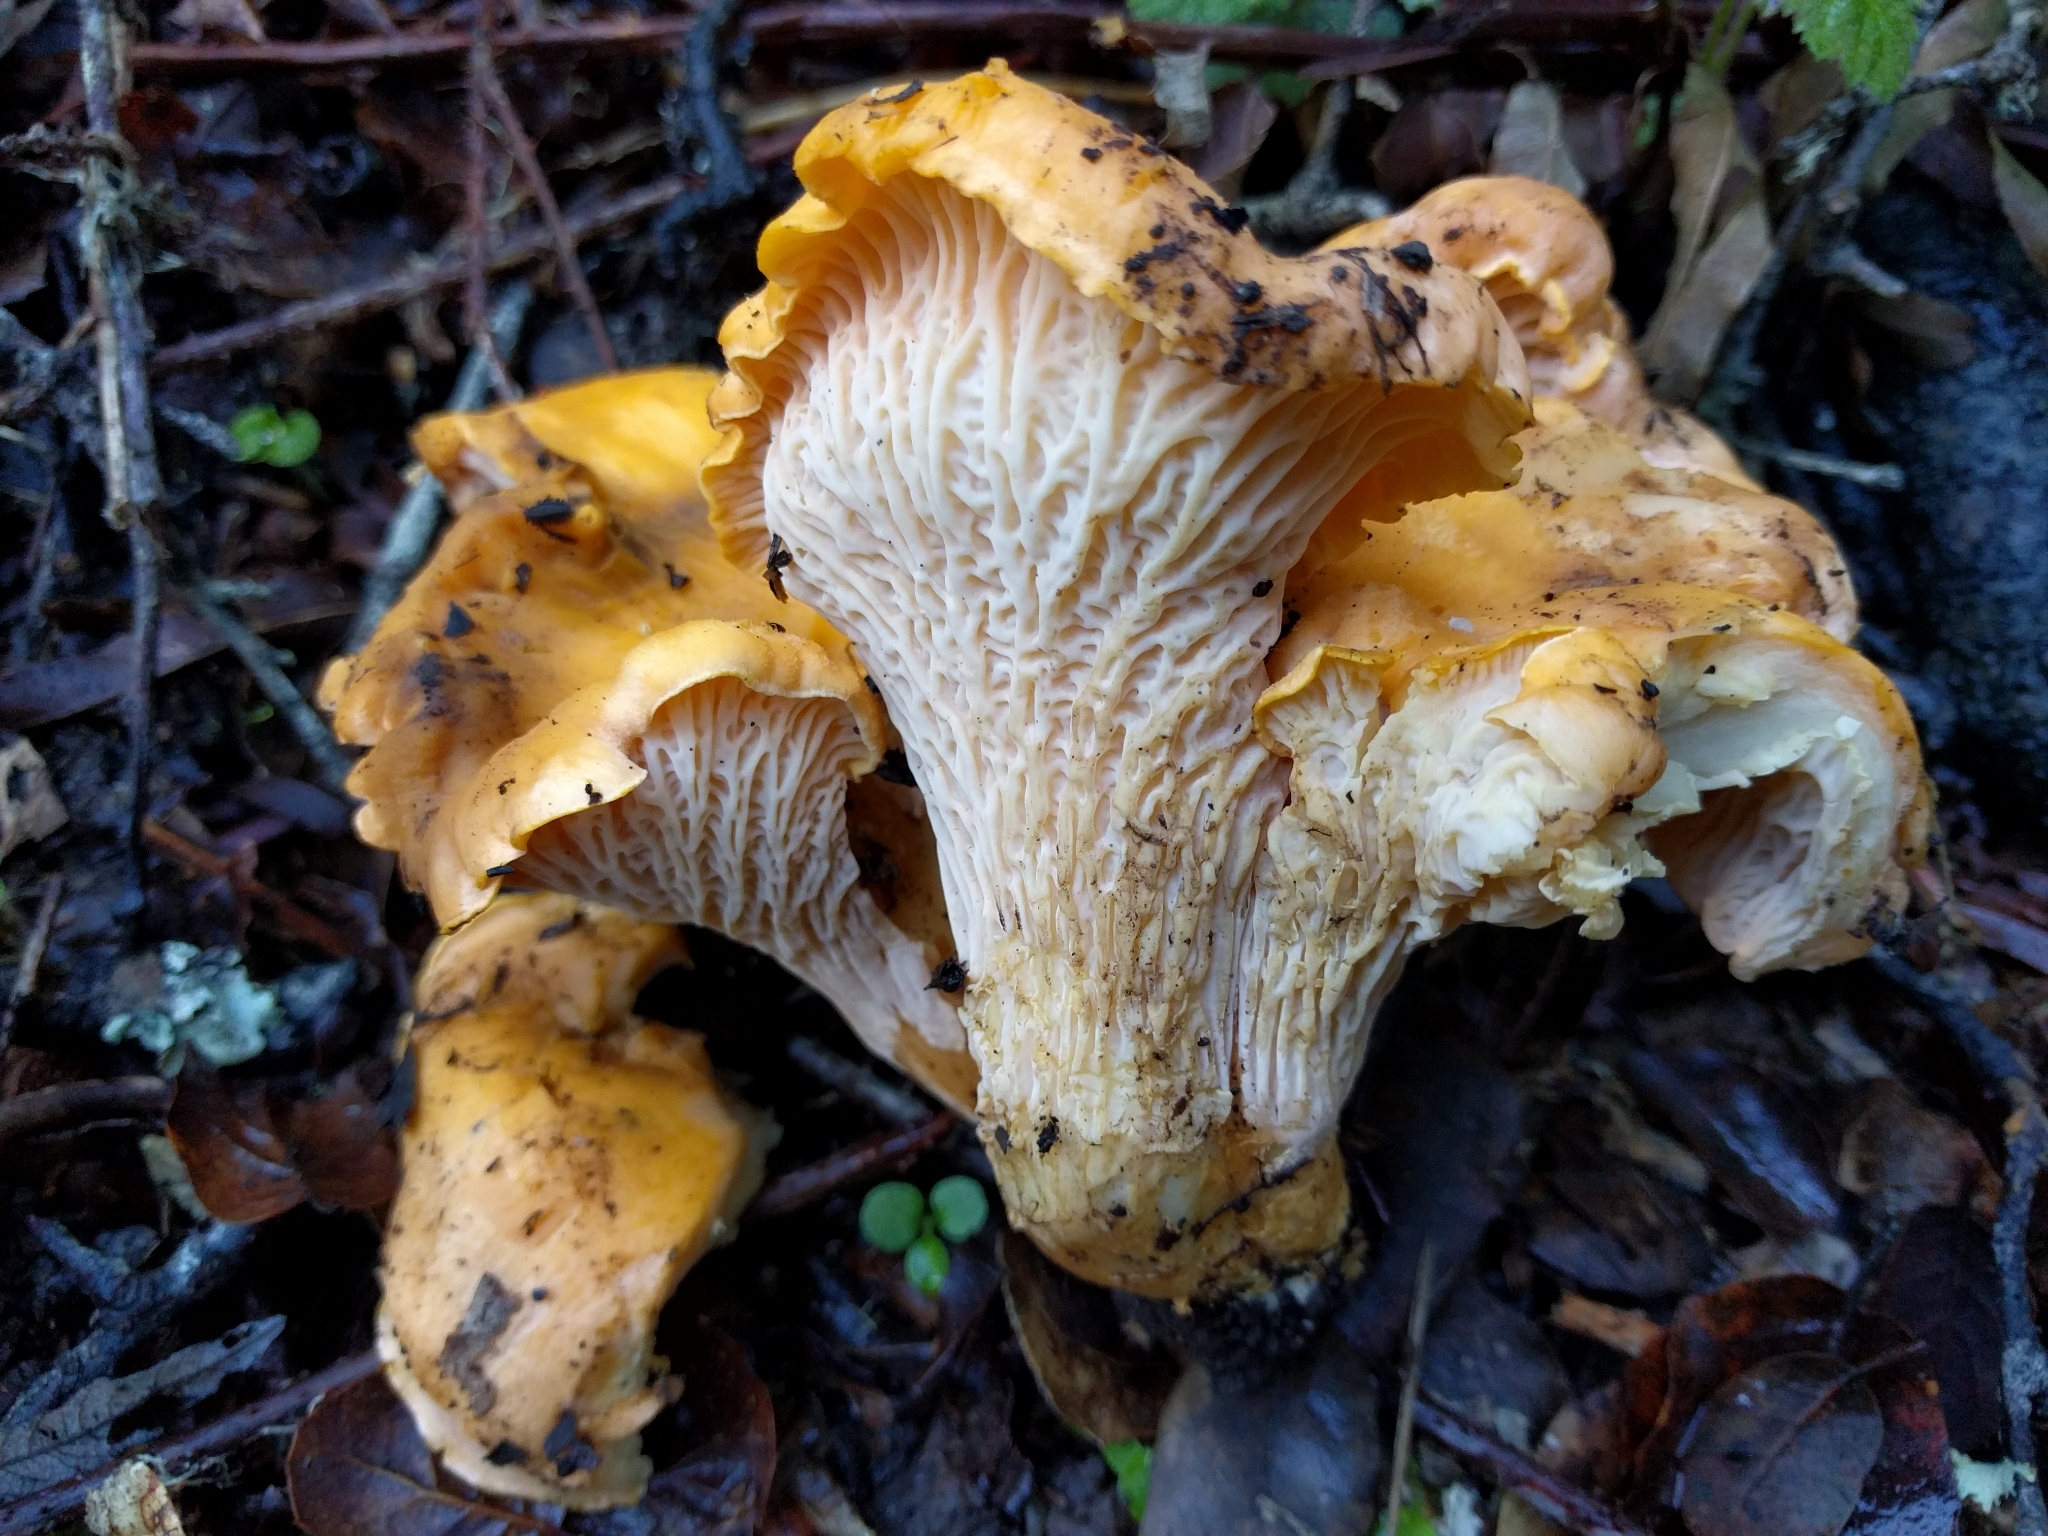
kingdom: Fungi
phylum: Basidiomycota
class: Agaricomycetes
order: Cantharellales
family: Hydnaceae
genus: Cantharellus
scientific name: Cantharellus californicus
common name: California golden chanterelle
